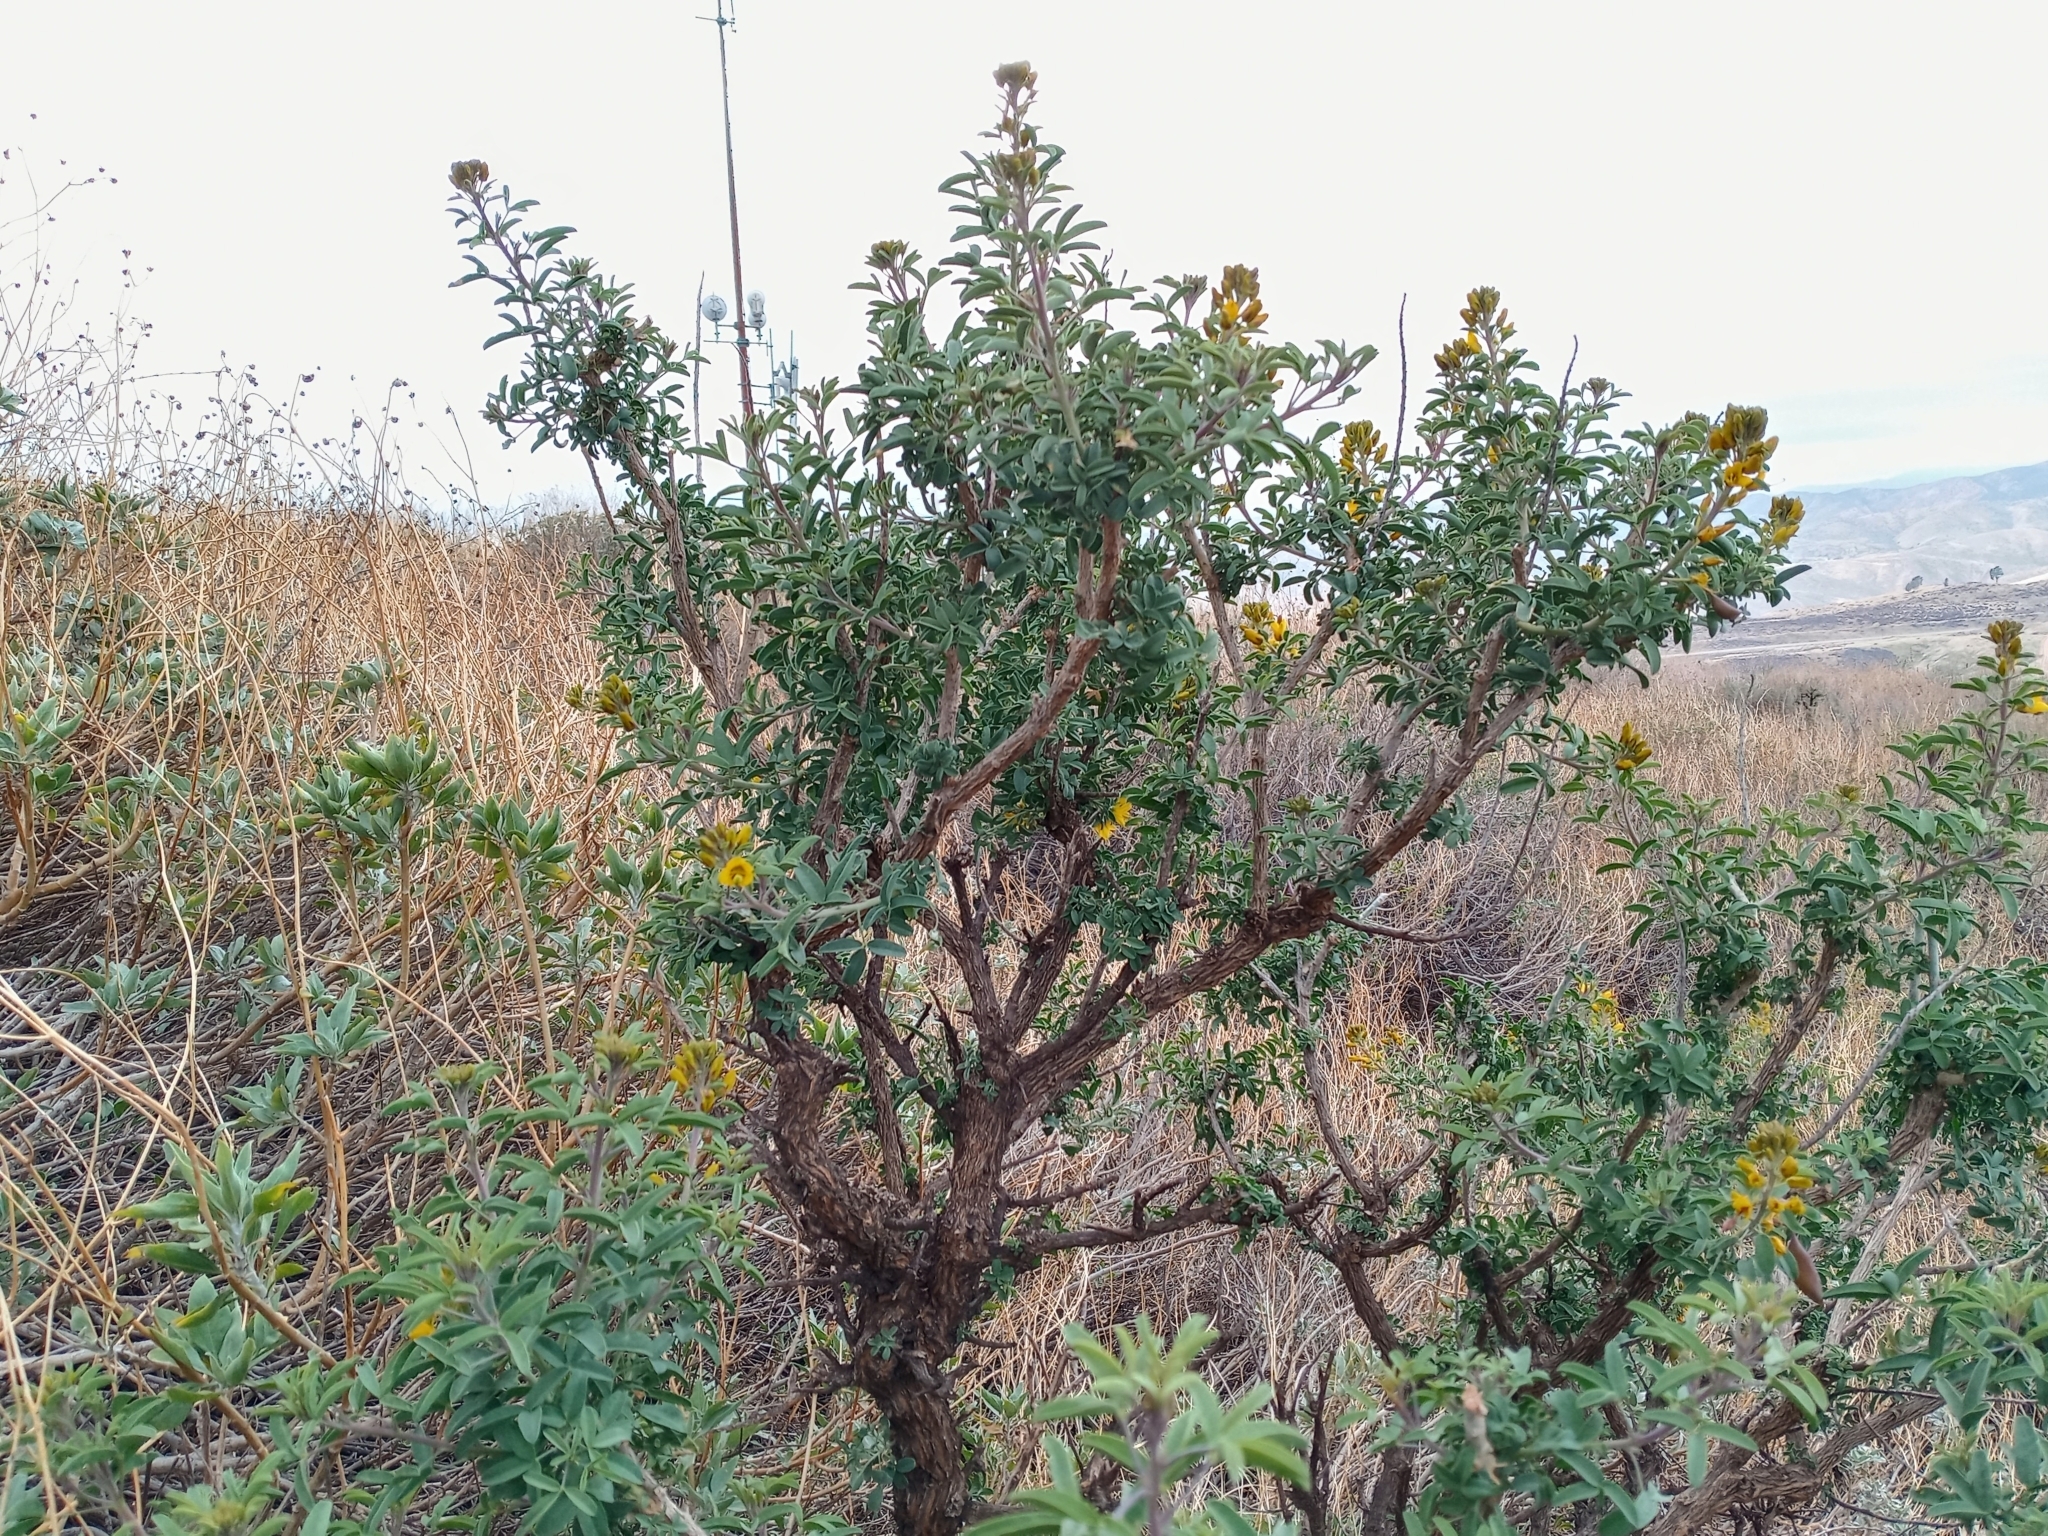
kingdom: Plantae
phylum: Tracheophyta
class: Magnoliopsida
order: Brassicales
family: Cleomaceae
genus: Cleomella
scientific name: Cleomella arborea
